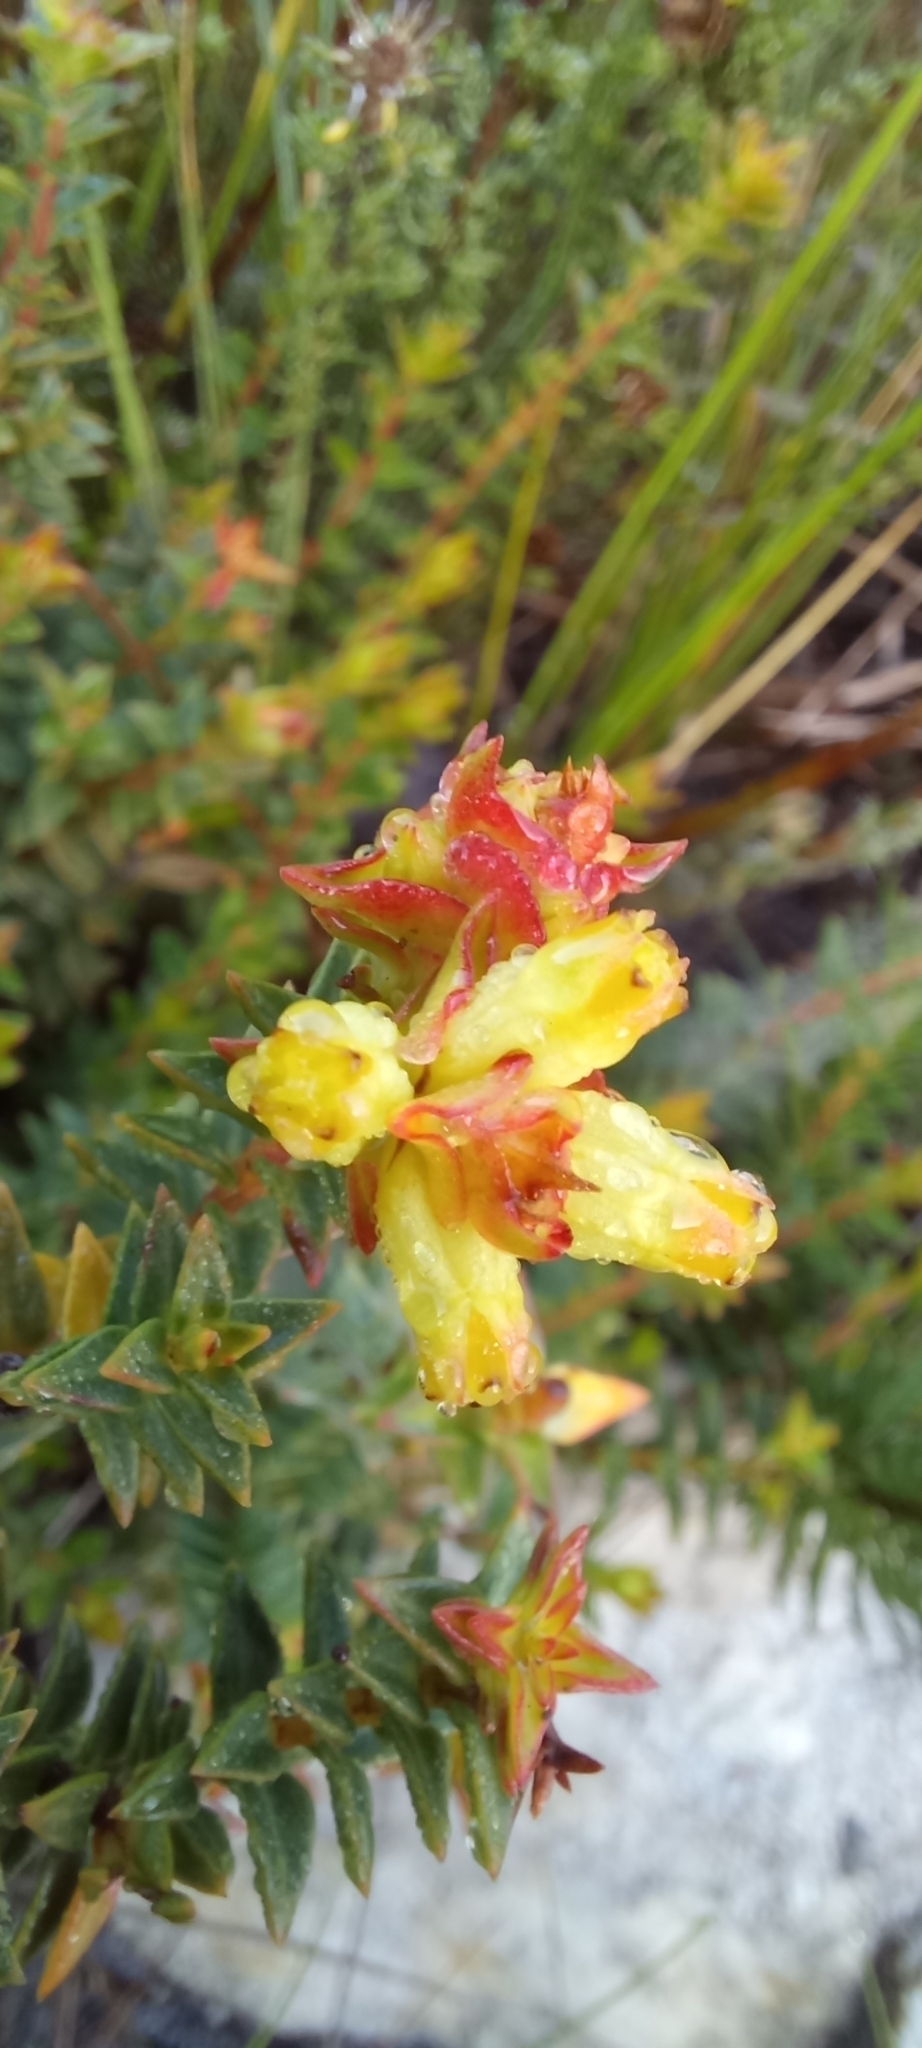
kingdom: Plantae
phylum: Tracheophyta
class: Magnoliopsida
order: Myrtales
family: Penaeaceae
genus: Penaea
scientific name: Penaea mucronata
